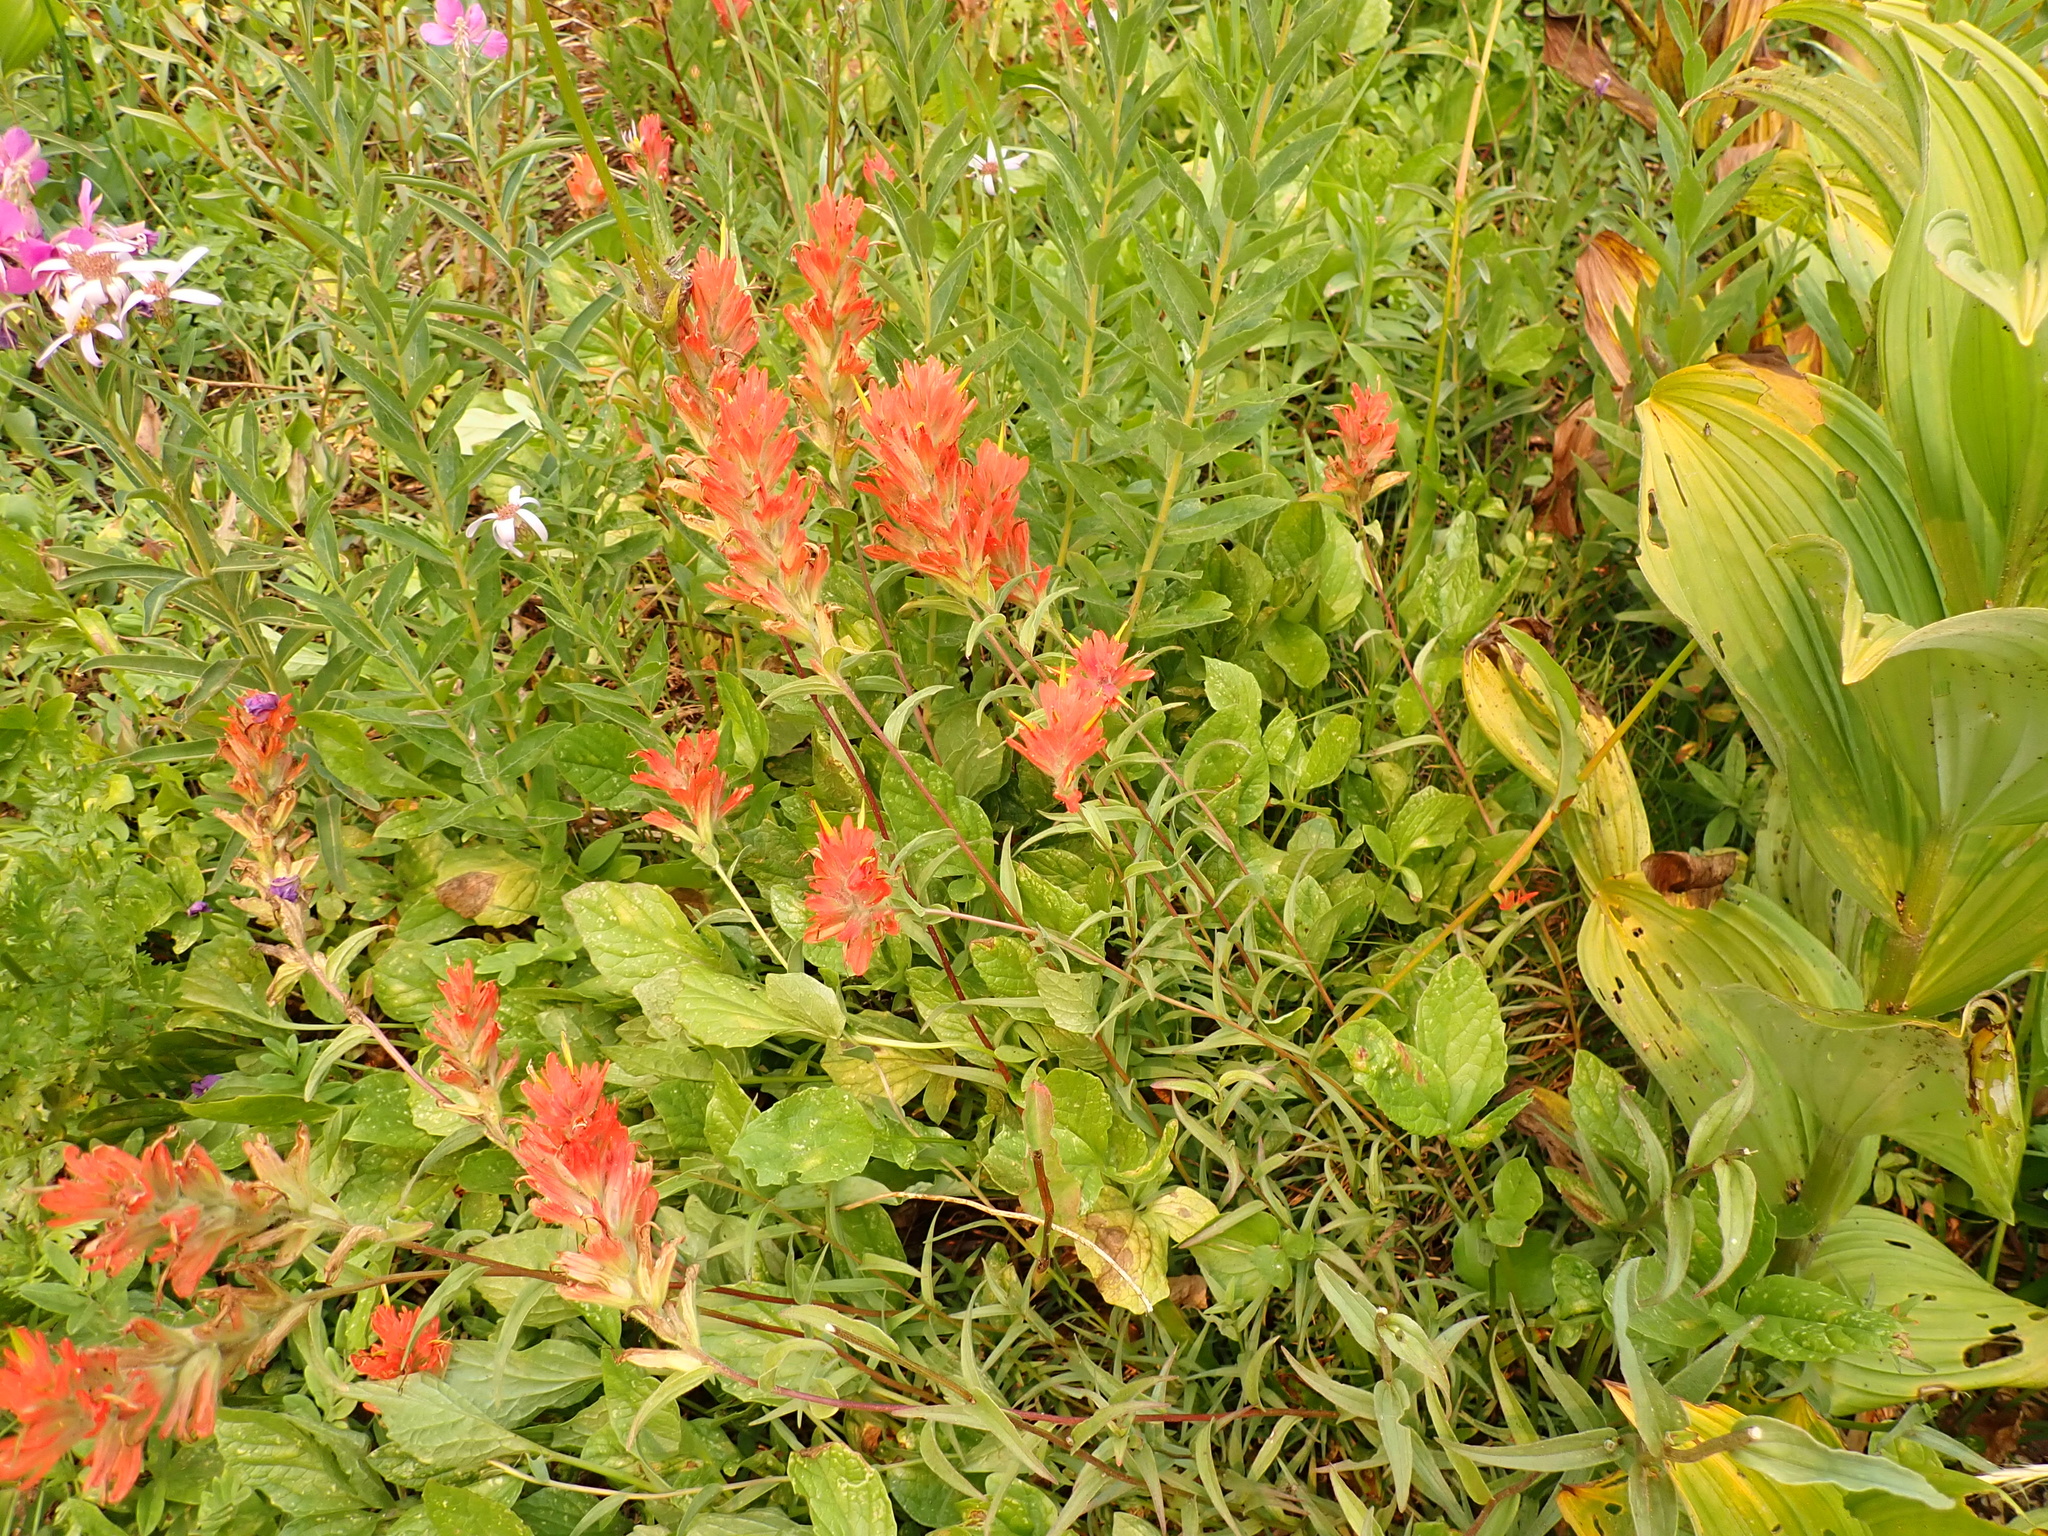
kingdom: Plantae
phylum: Tracheophyta
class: Magnoliopsida
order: Lamiales
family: Orobanchaceae
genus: Castilleja
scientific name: Castilleja miniata
